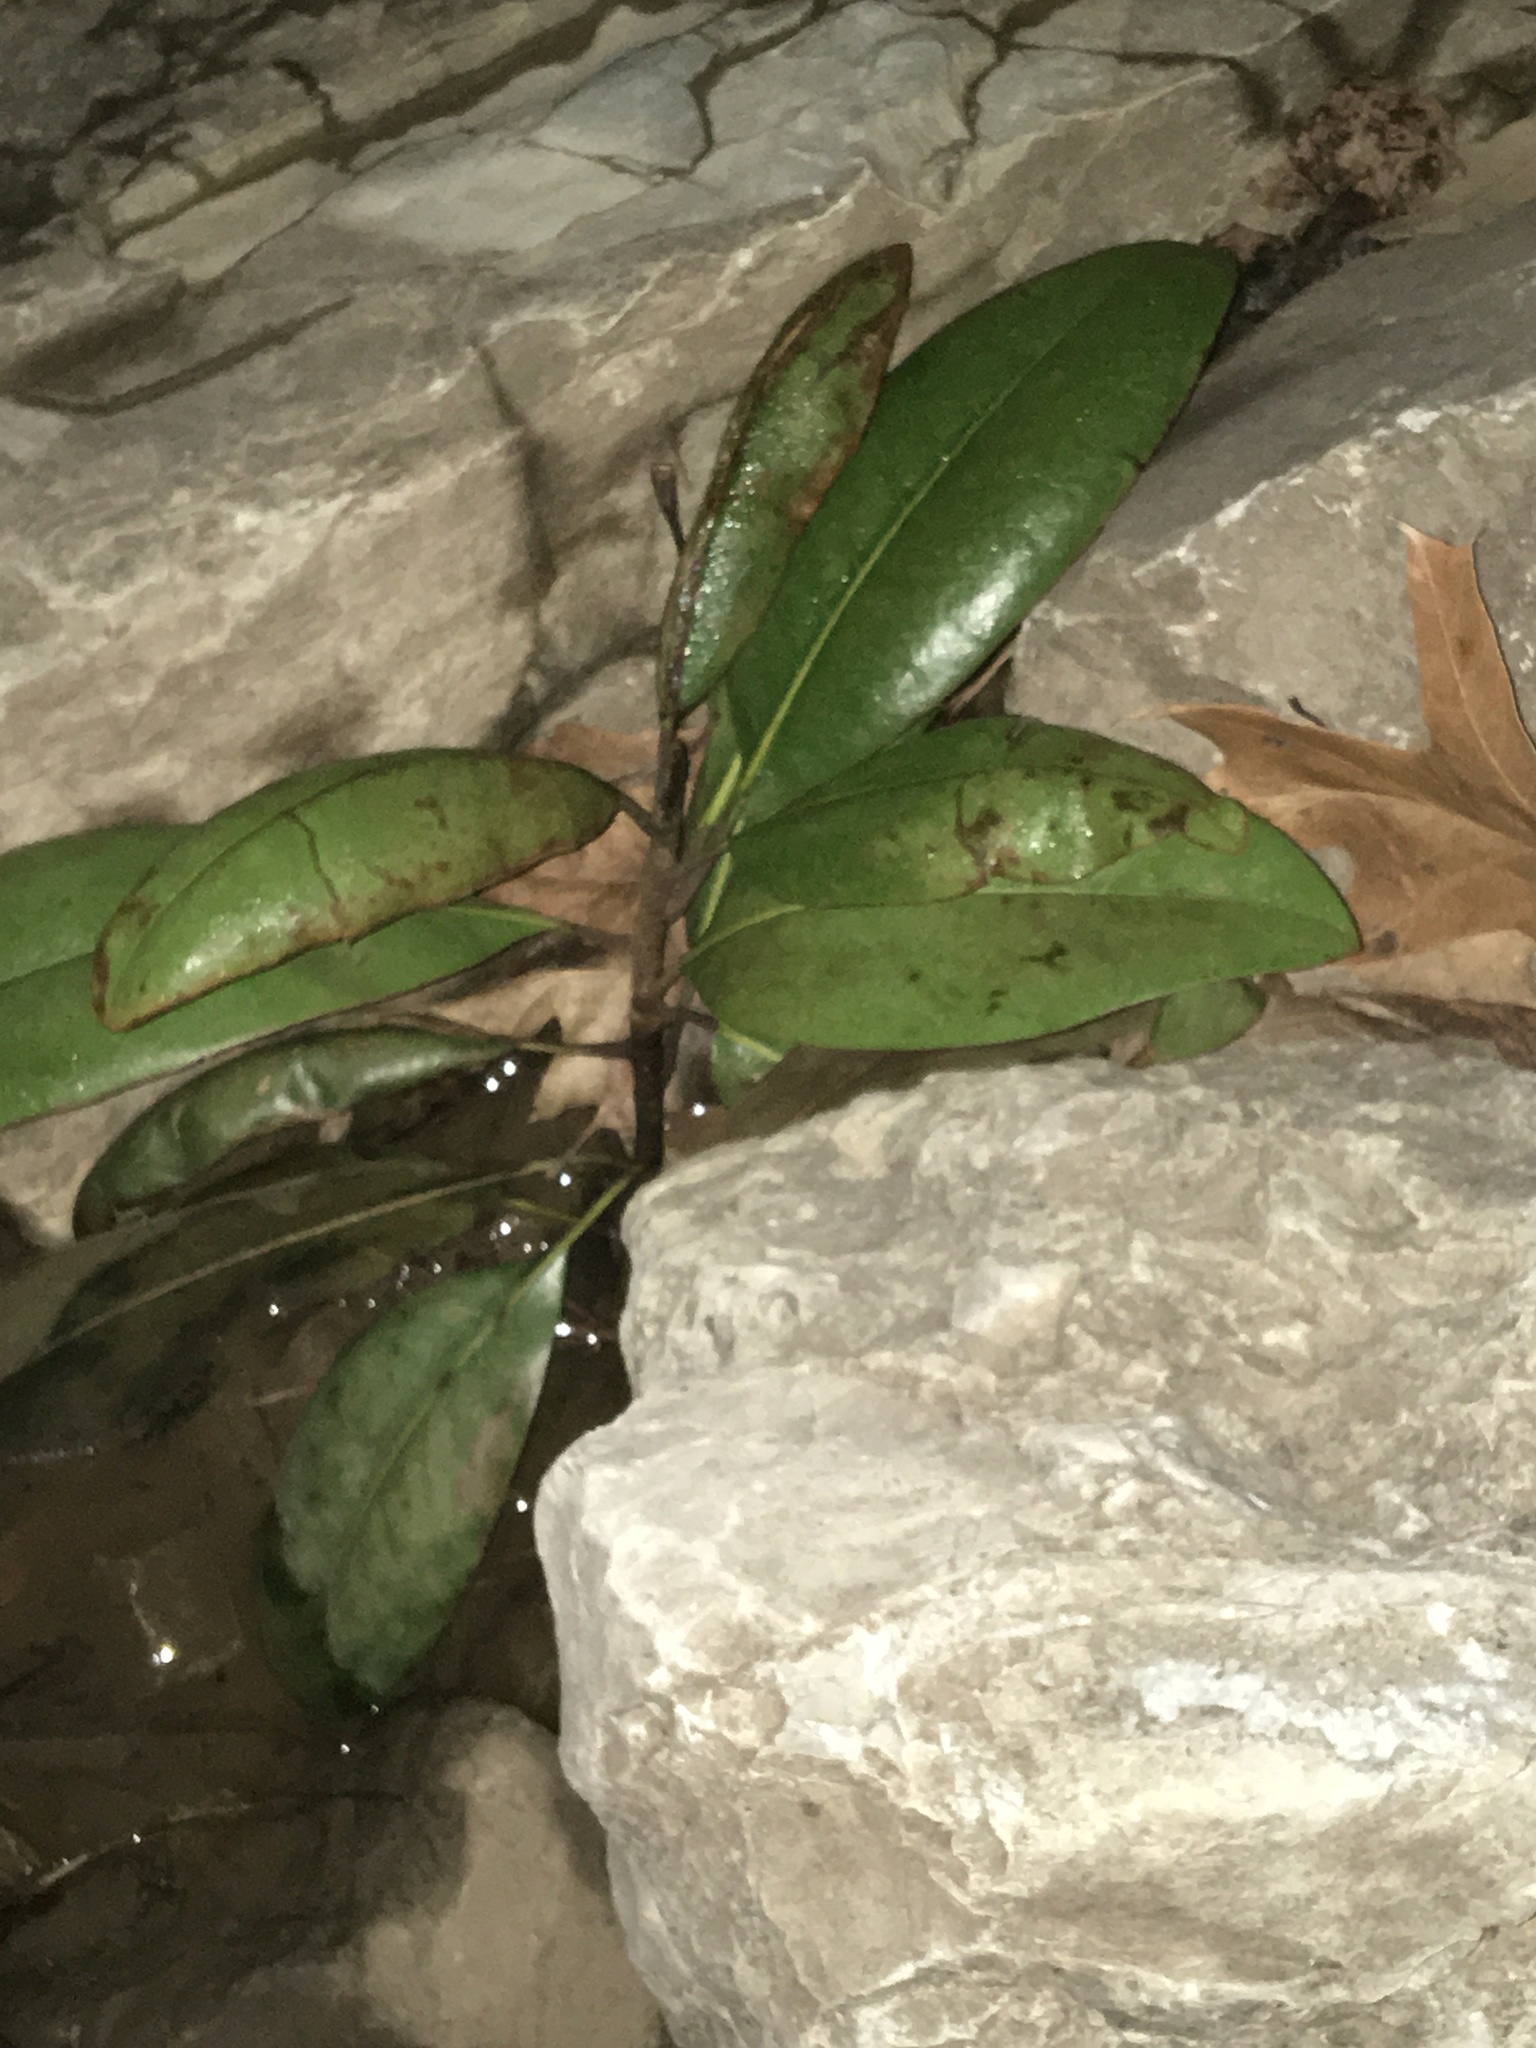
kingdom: Plantae
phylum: Tracheophyta
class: Magnoliopsida
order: Magnoliales
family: Magnoliaceae
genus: Magnolia
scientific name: Magnolia grandiflora
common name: Southern magnolia
